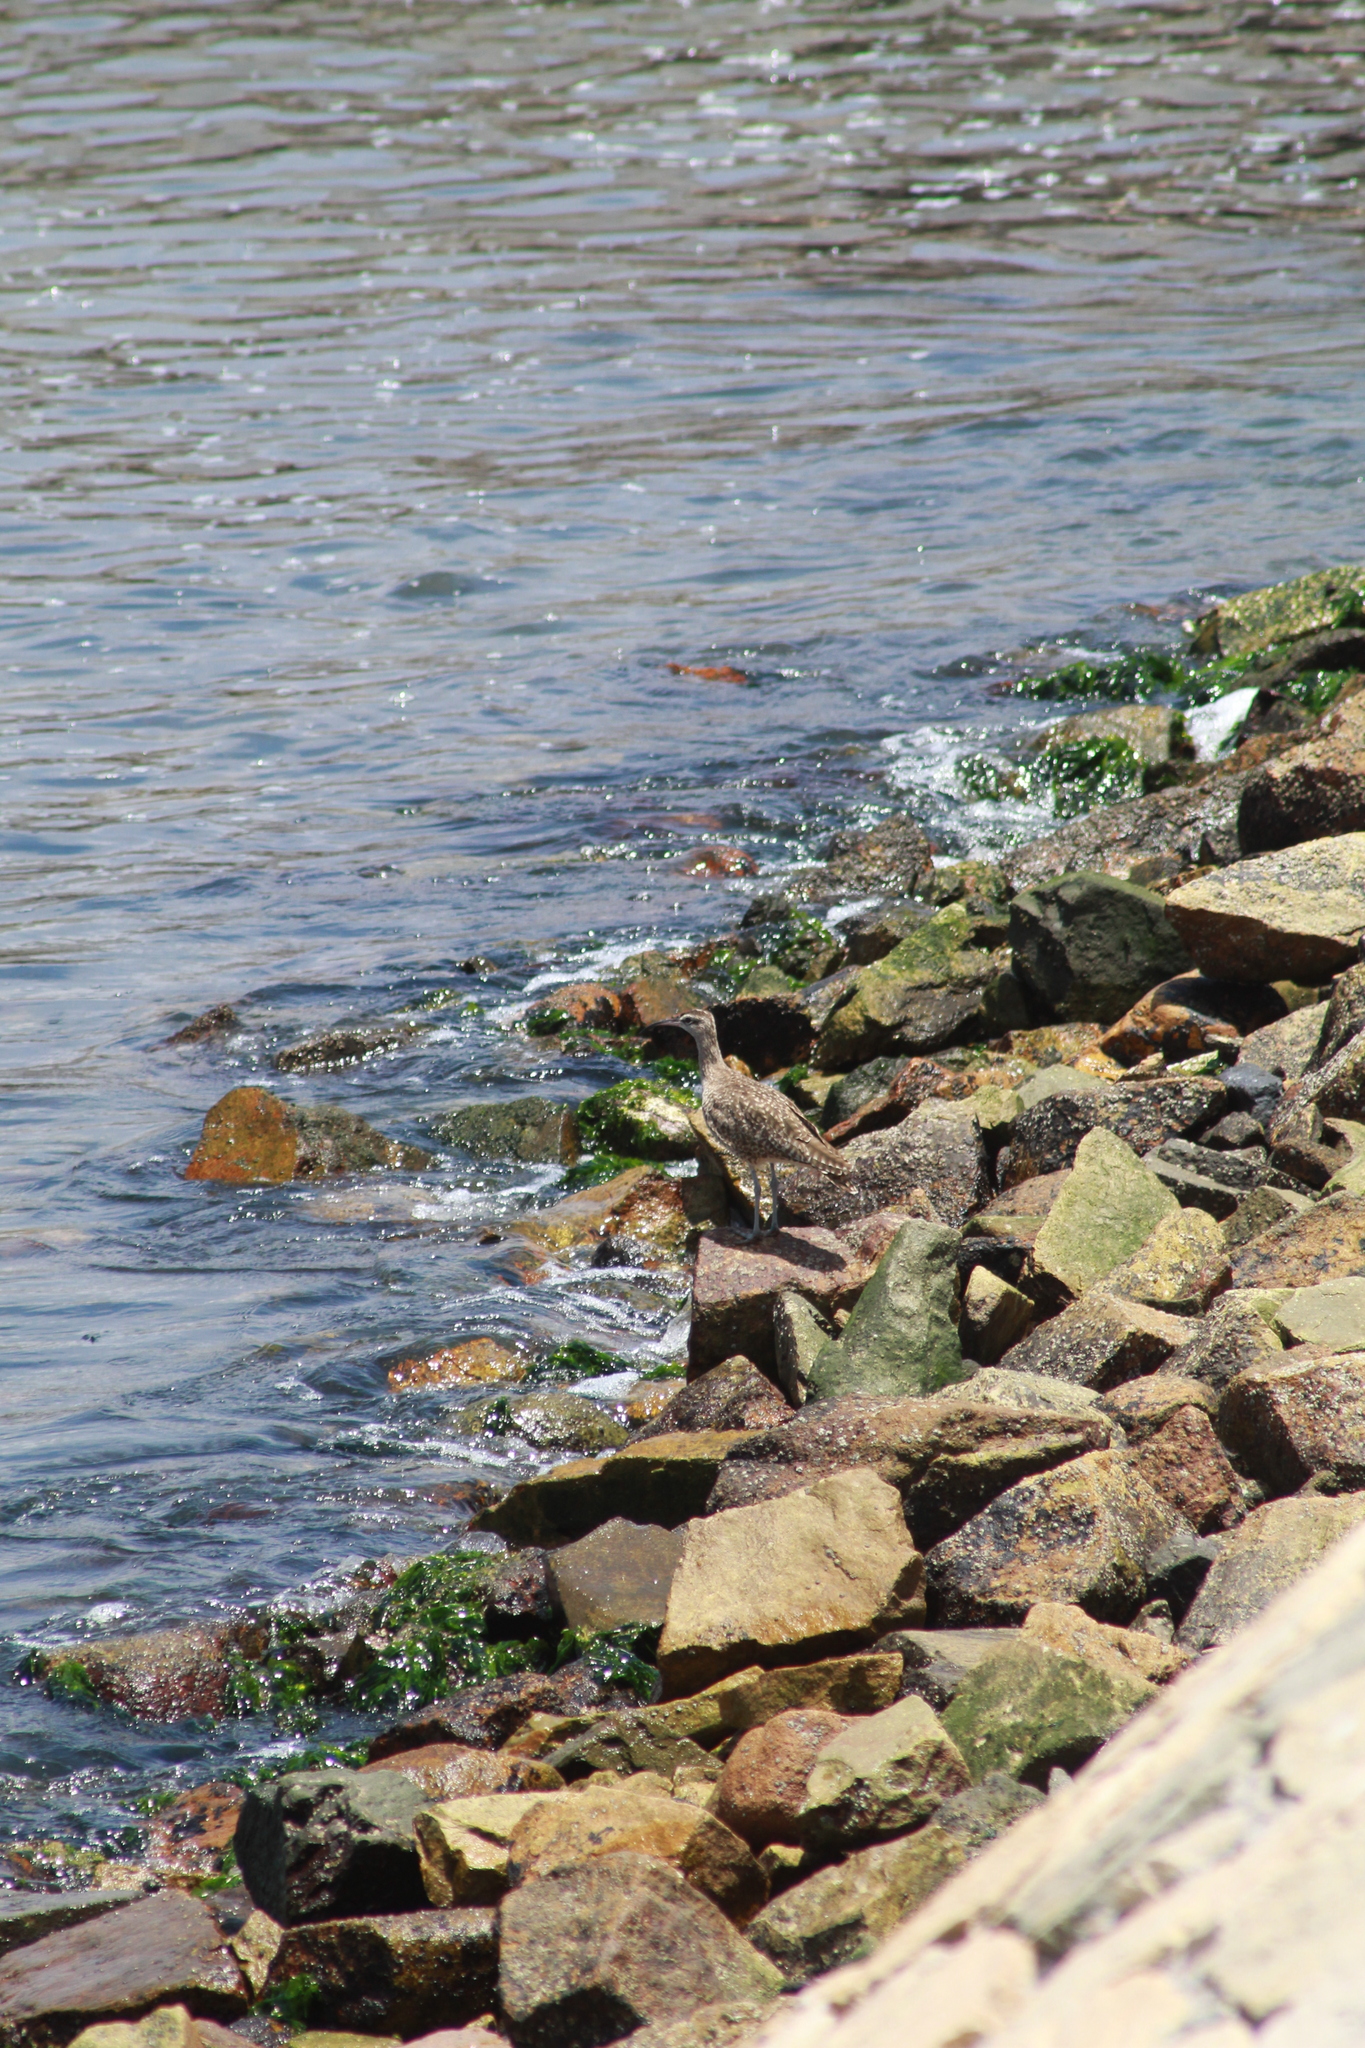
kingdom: Animalia
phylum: Chordata
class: Aves
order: Charadriiformes
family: Scolopacidae
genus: Numenius
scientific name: Numenius phaeopus
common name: Whimbrel
